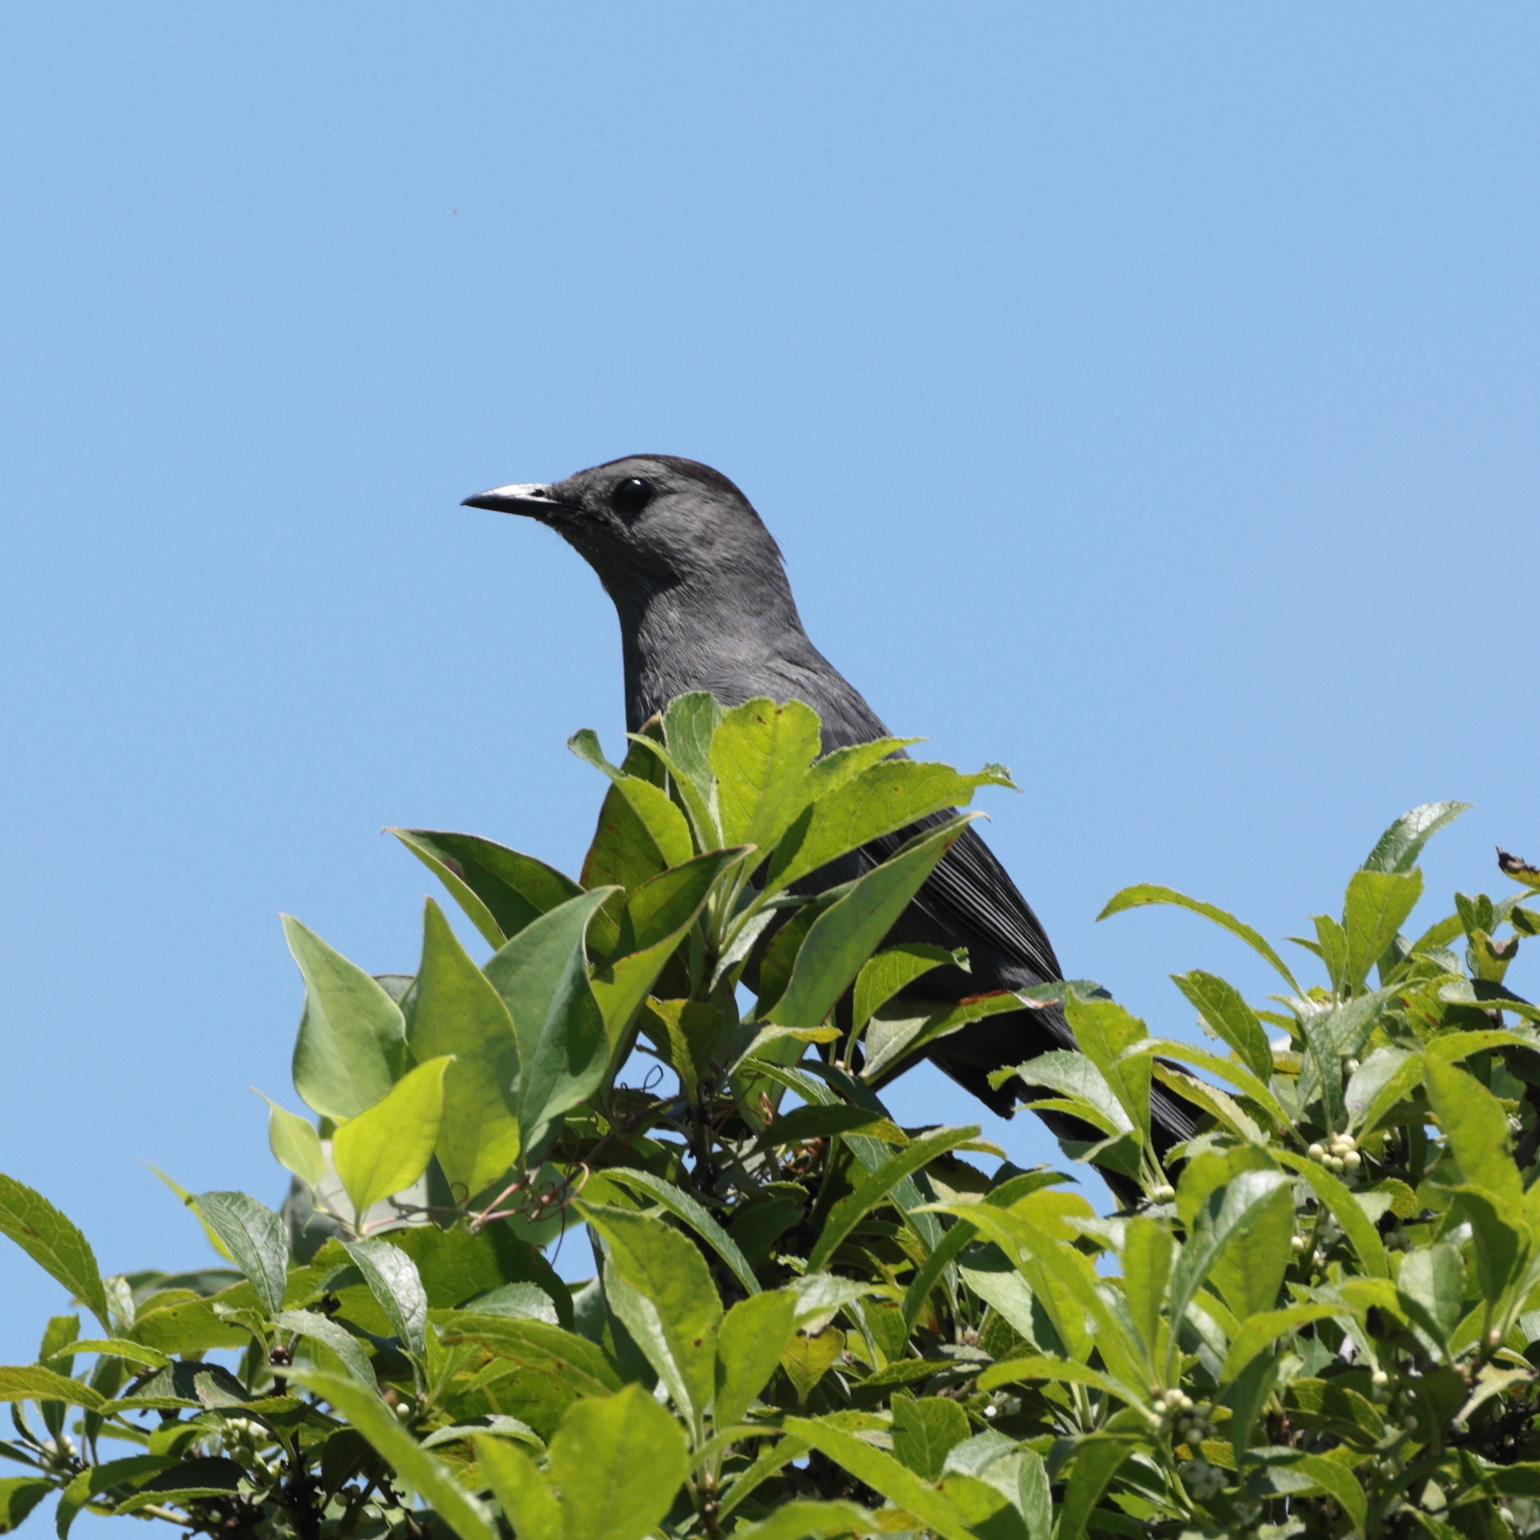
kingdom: Animalia
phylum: Chordata
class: Aves
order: Passeriformes
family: Mimidae
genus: Dumetella
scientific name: Dumetella carolinensis
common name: Gray catbird
